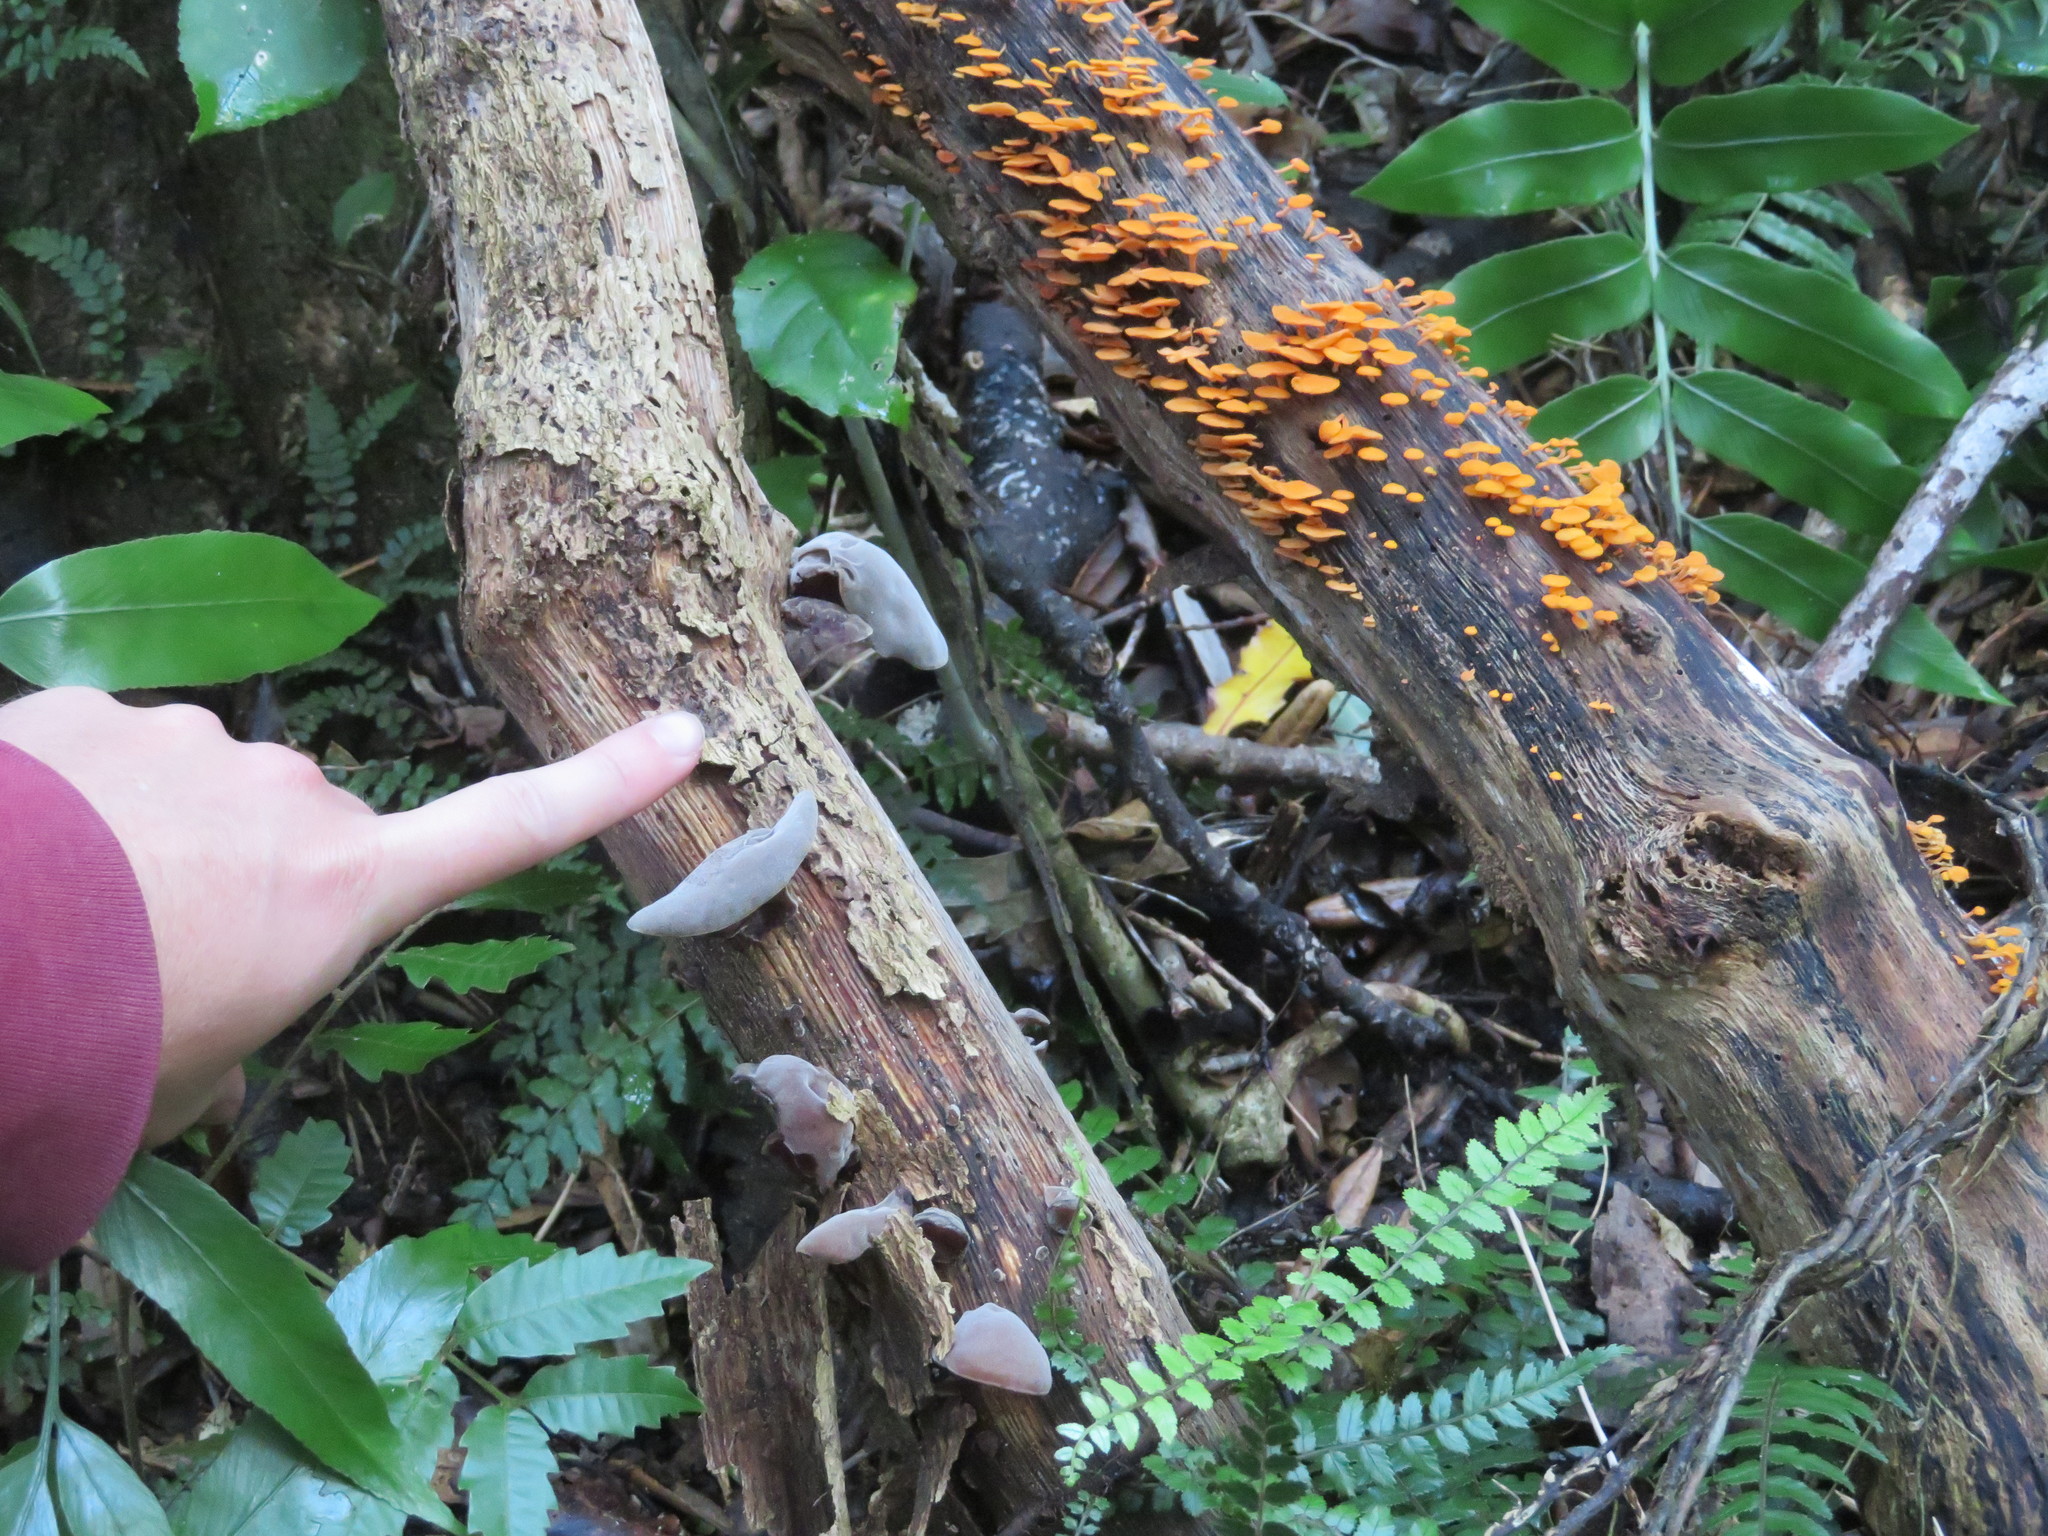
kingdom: Fungi
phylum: Basidiomycota
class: Agaricomycetes
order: Auriculariales
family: Auriculariaceae
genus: Auricularia
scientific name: Auricularia cornea
